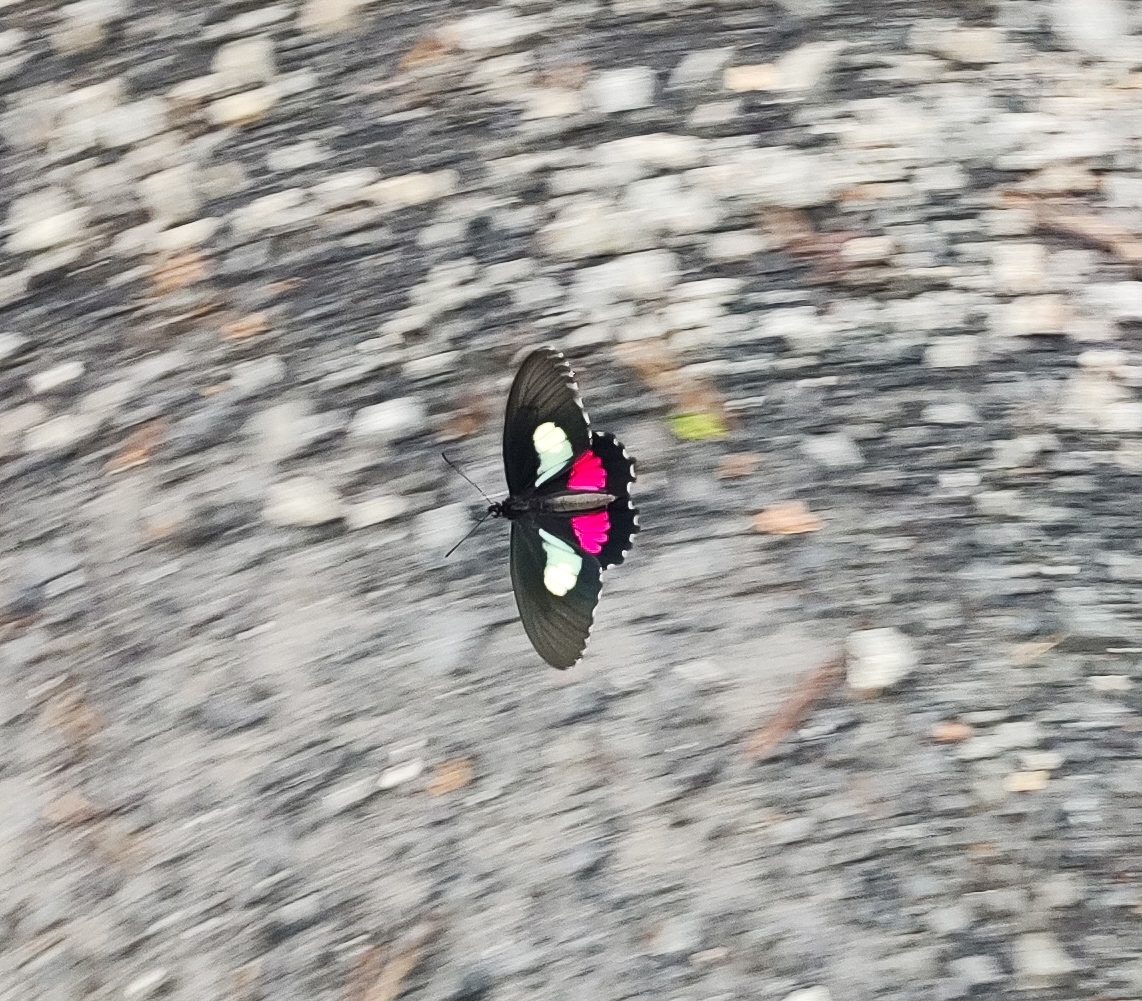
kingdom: Animalia
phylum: Arthropoda
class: Insecta
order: Lepidoptera
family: Papilionidae
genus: Parides
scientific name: Parides anchises
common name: Cattle heart
